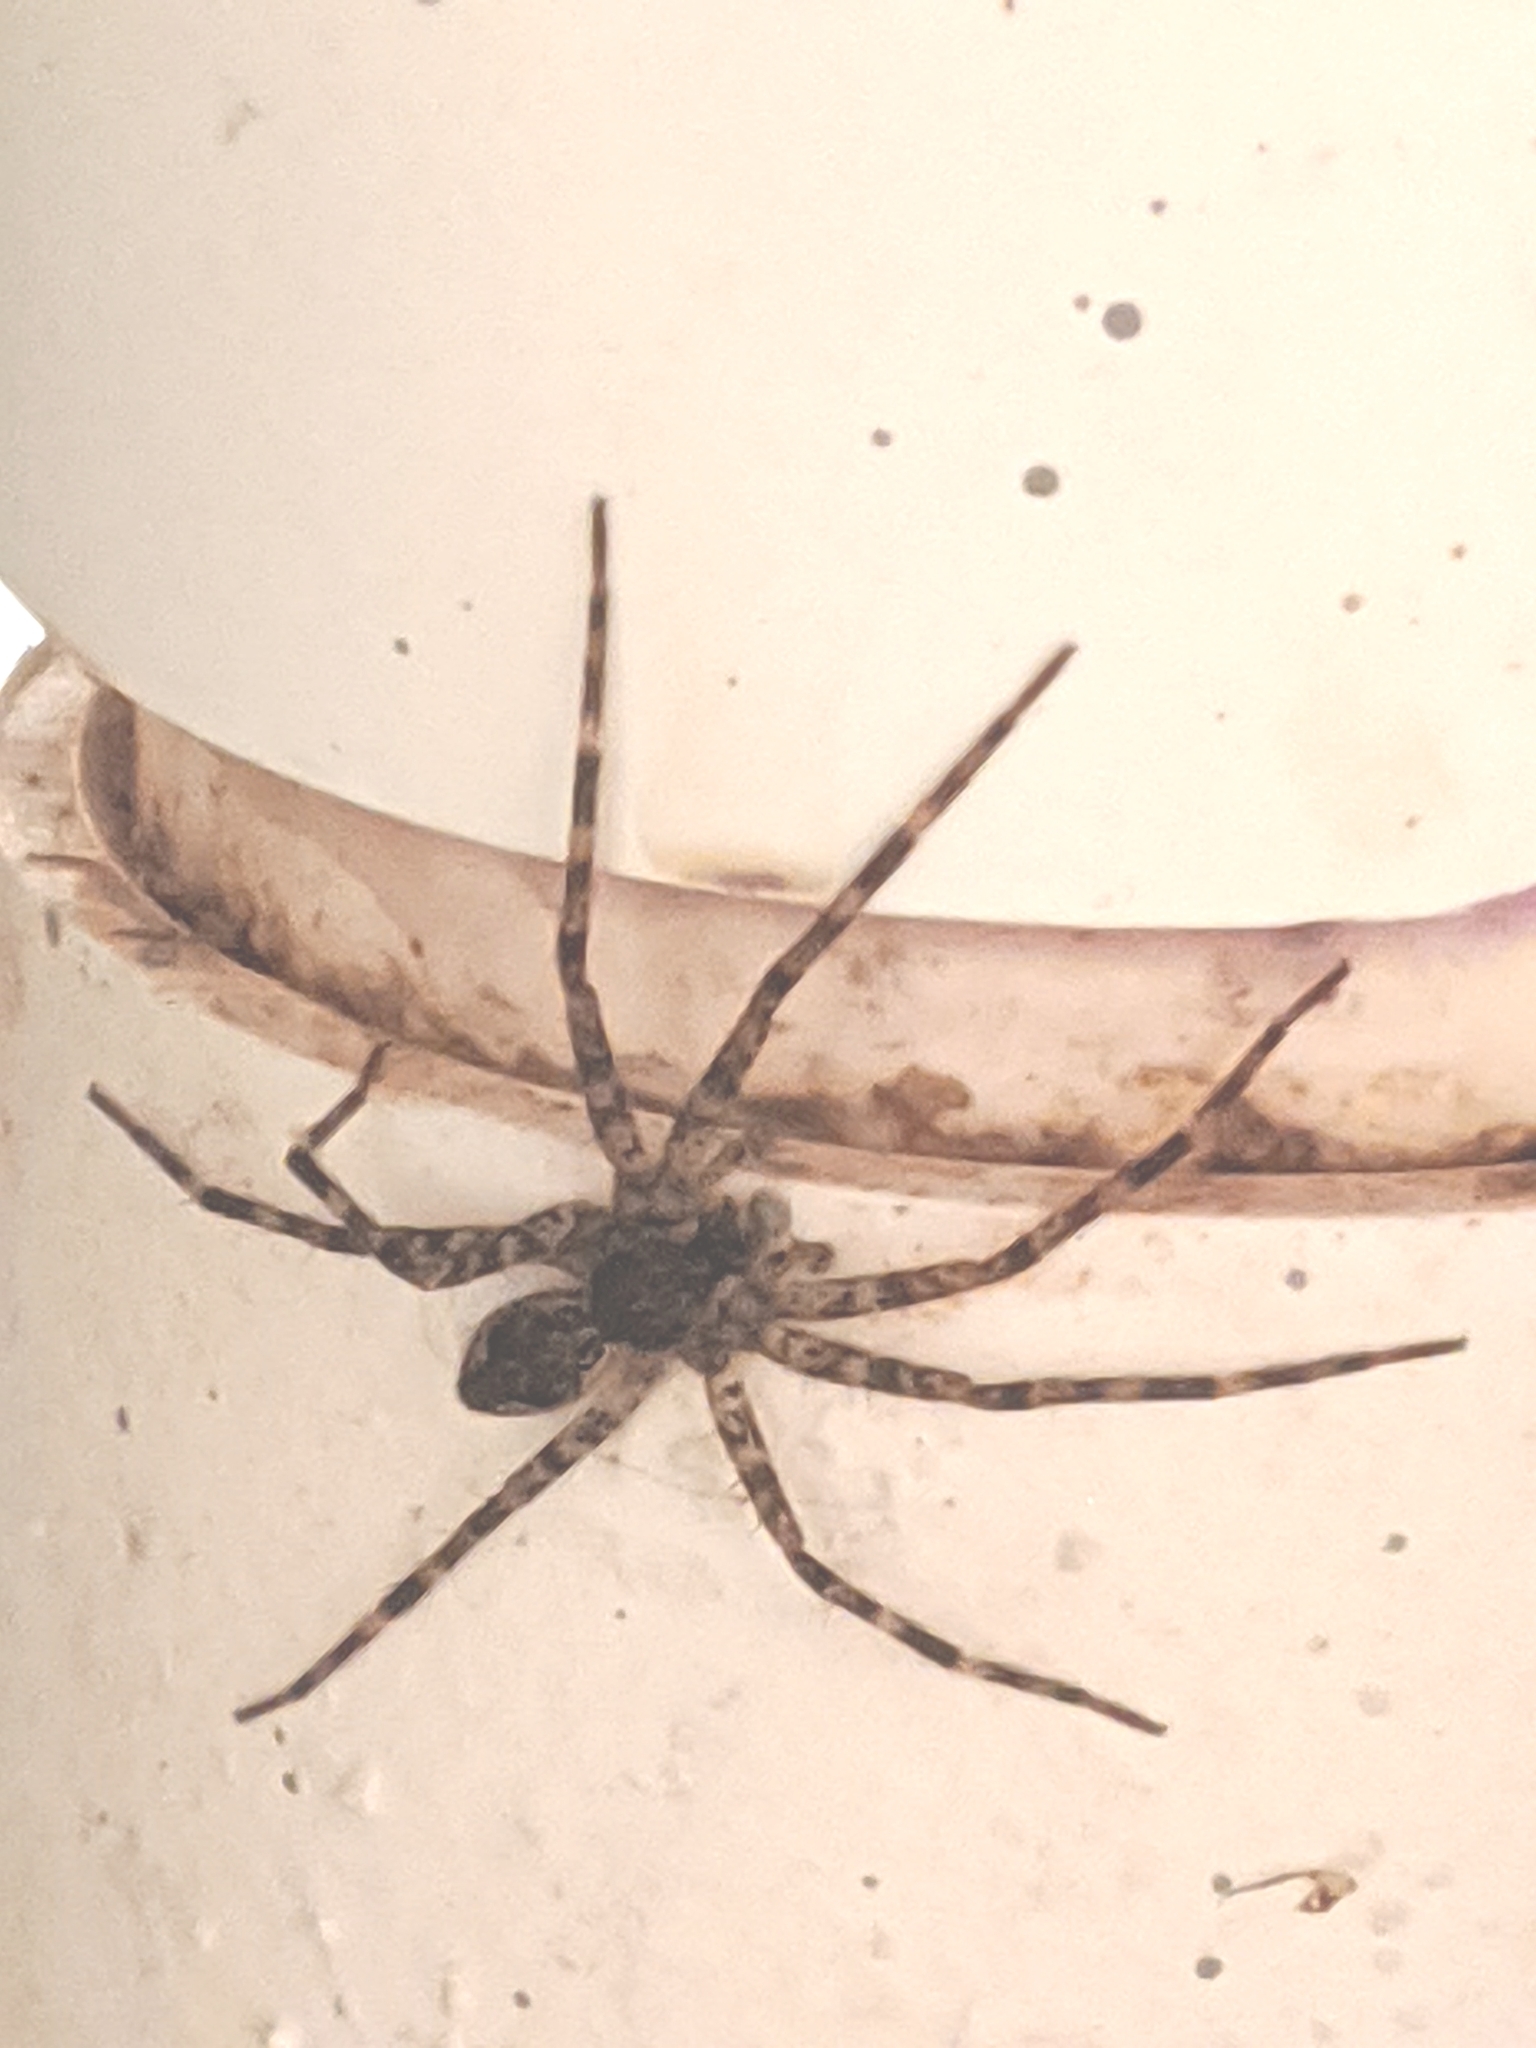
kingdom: Animalia
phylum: Arthropoda
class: Arachnida
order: Araneae
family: Pisauridae
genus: Dolomedes
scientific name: Dolomedes tenebrosus
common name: Dark fishing spider
